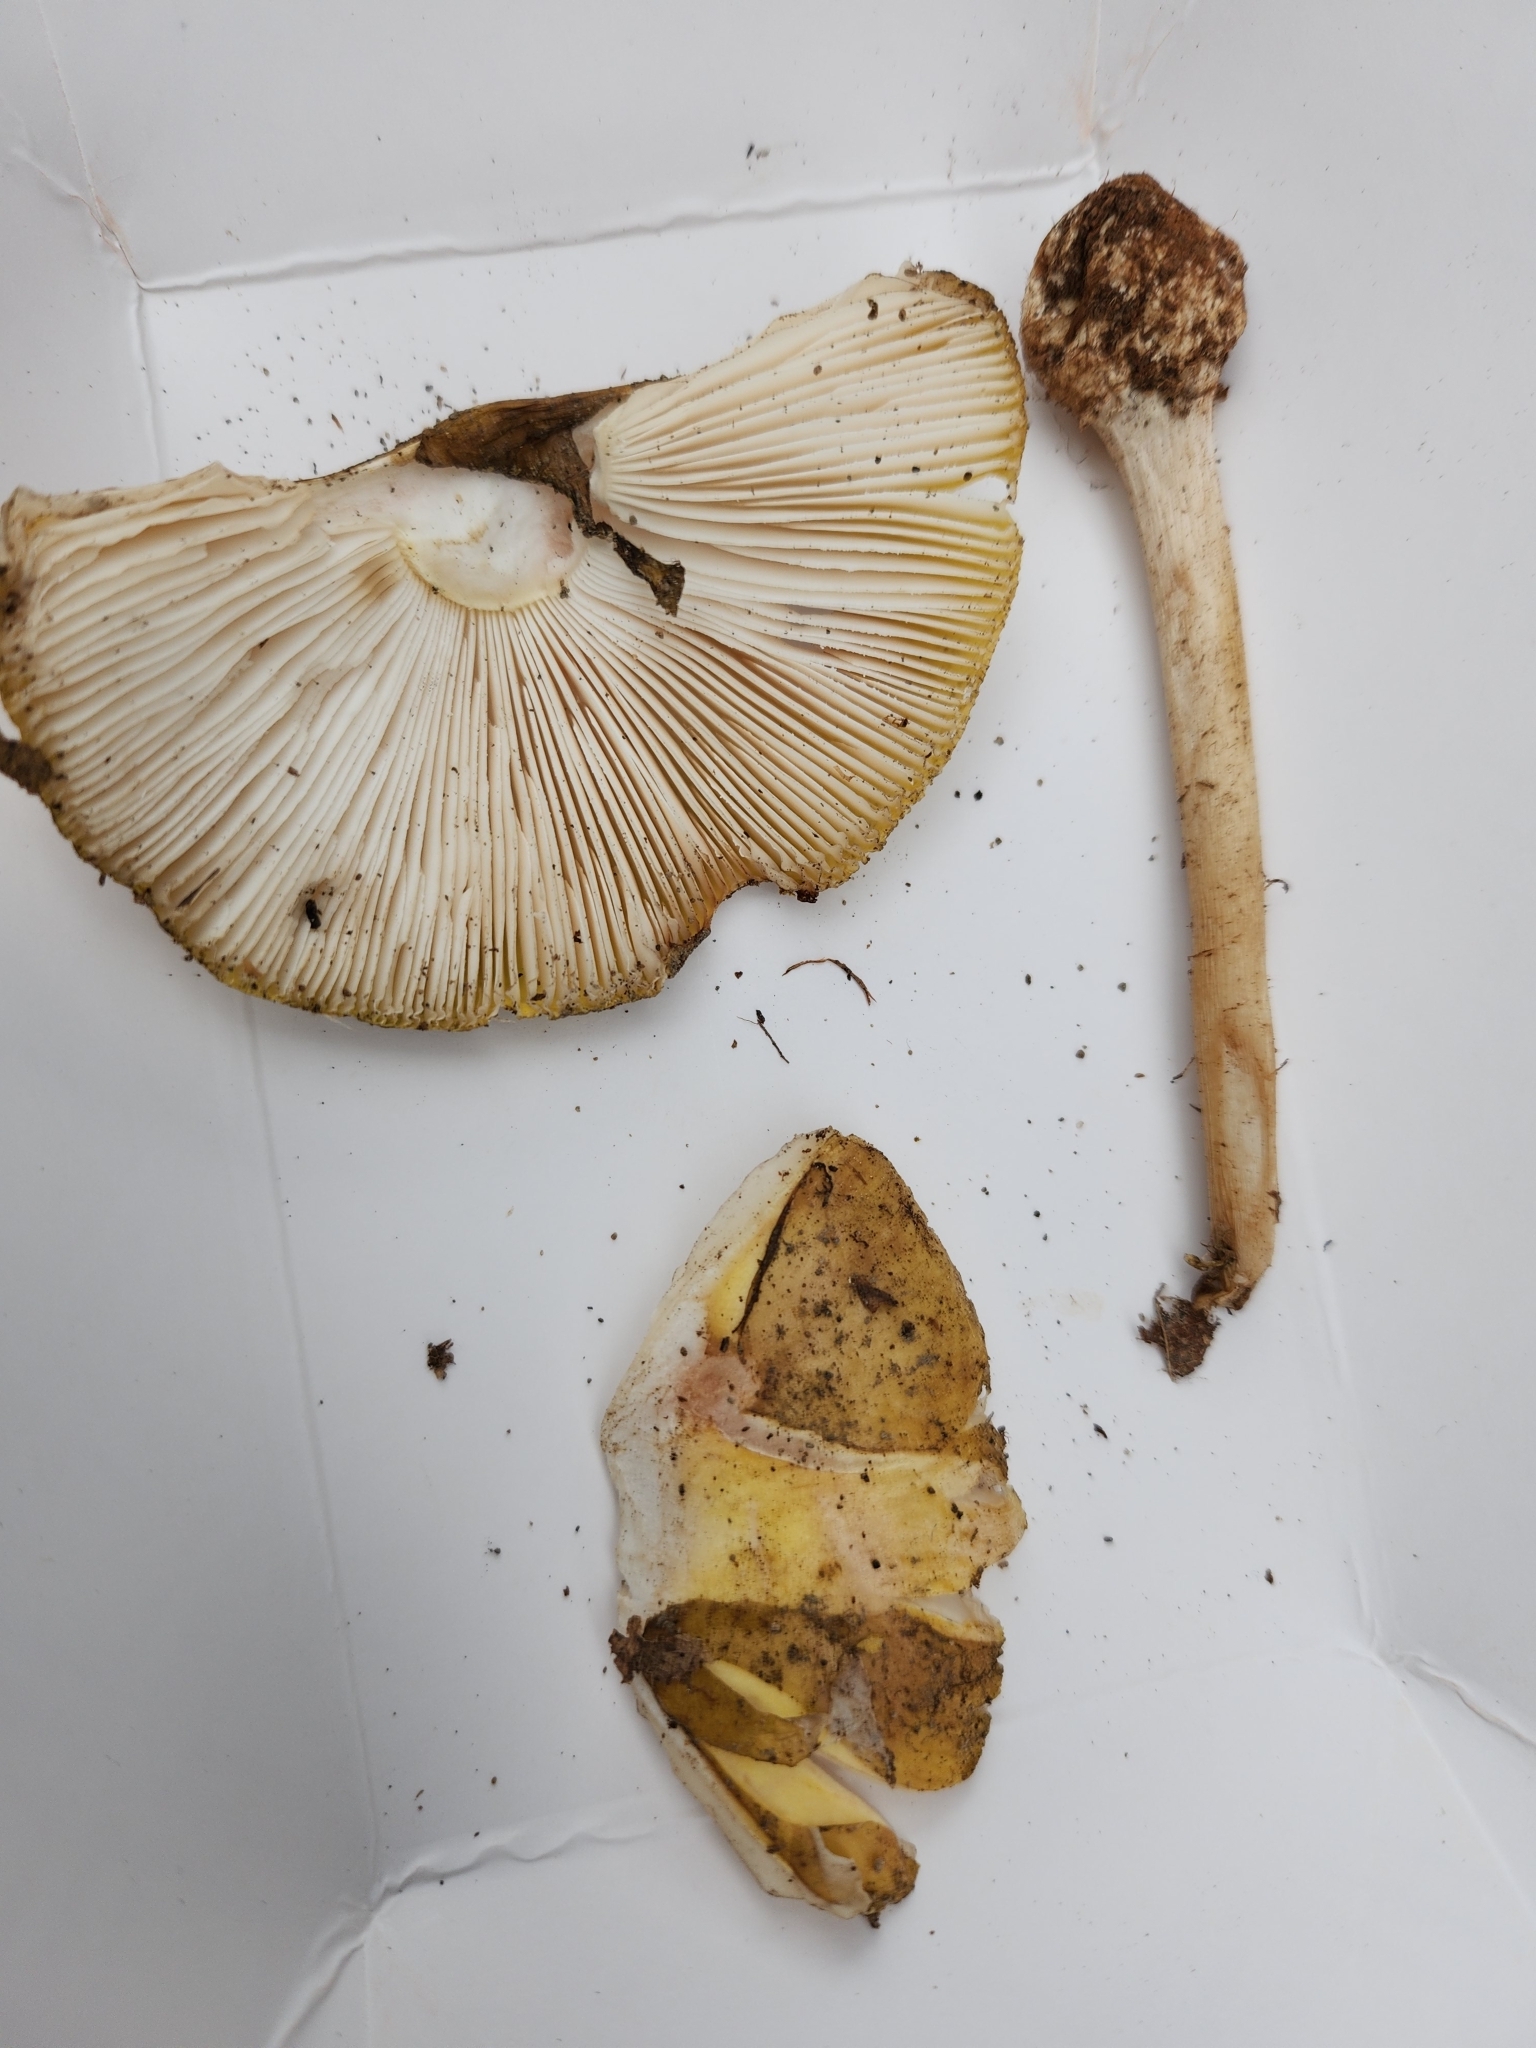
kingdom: Fungi
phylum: Basidiomycota
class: Agaricomycetes
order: Agaricales
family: Amanitaceae
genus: Amanita
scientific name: Amanita flavorubens
